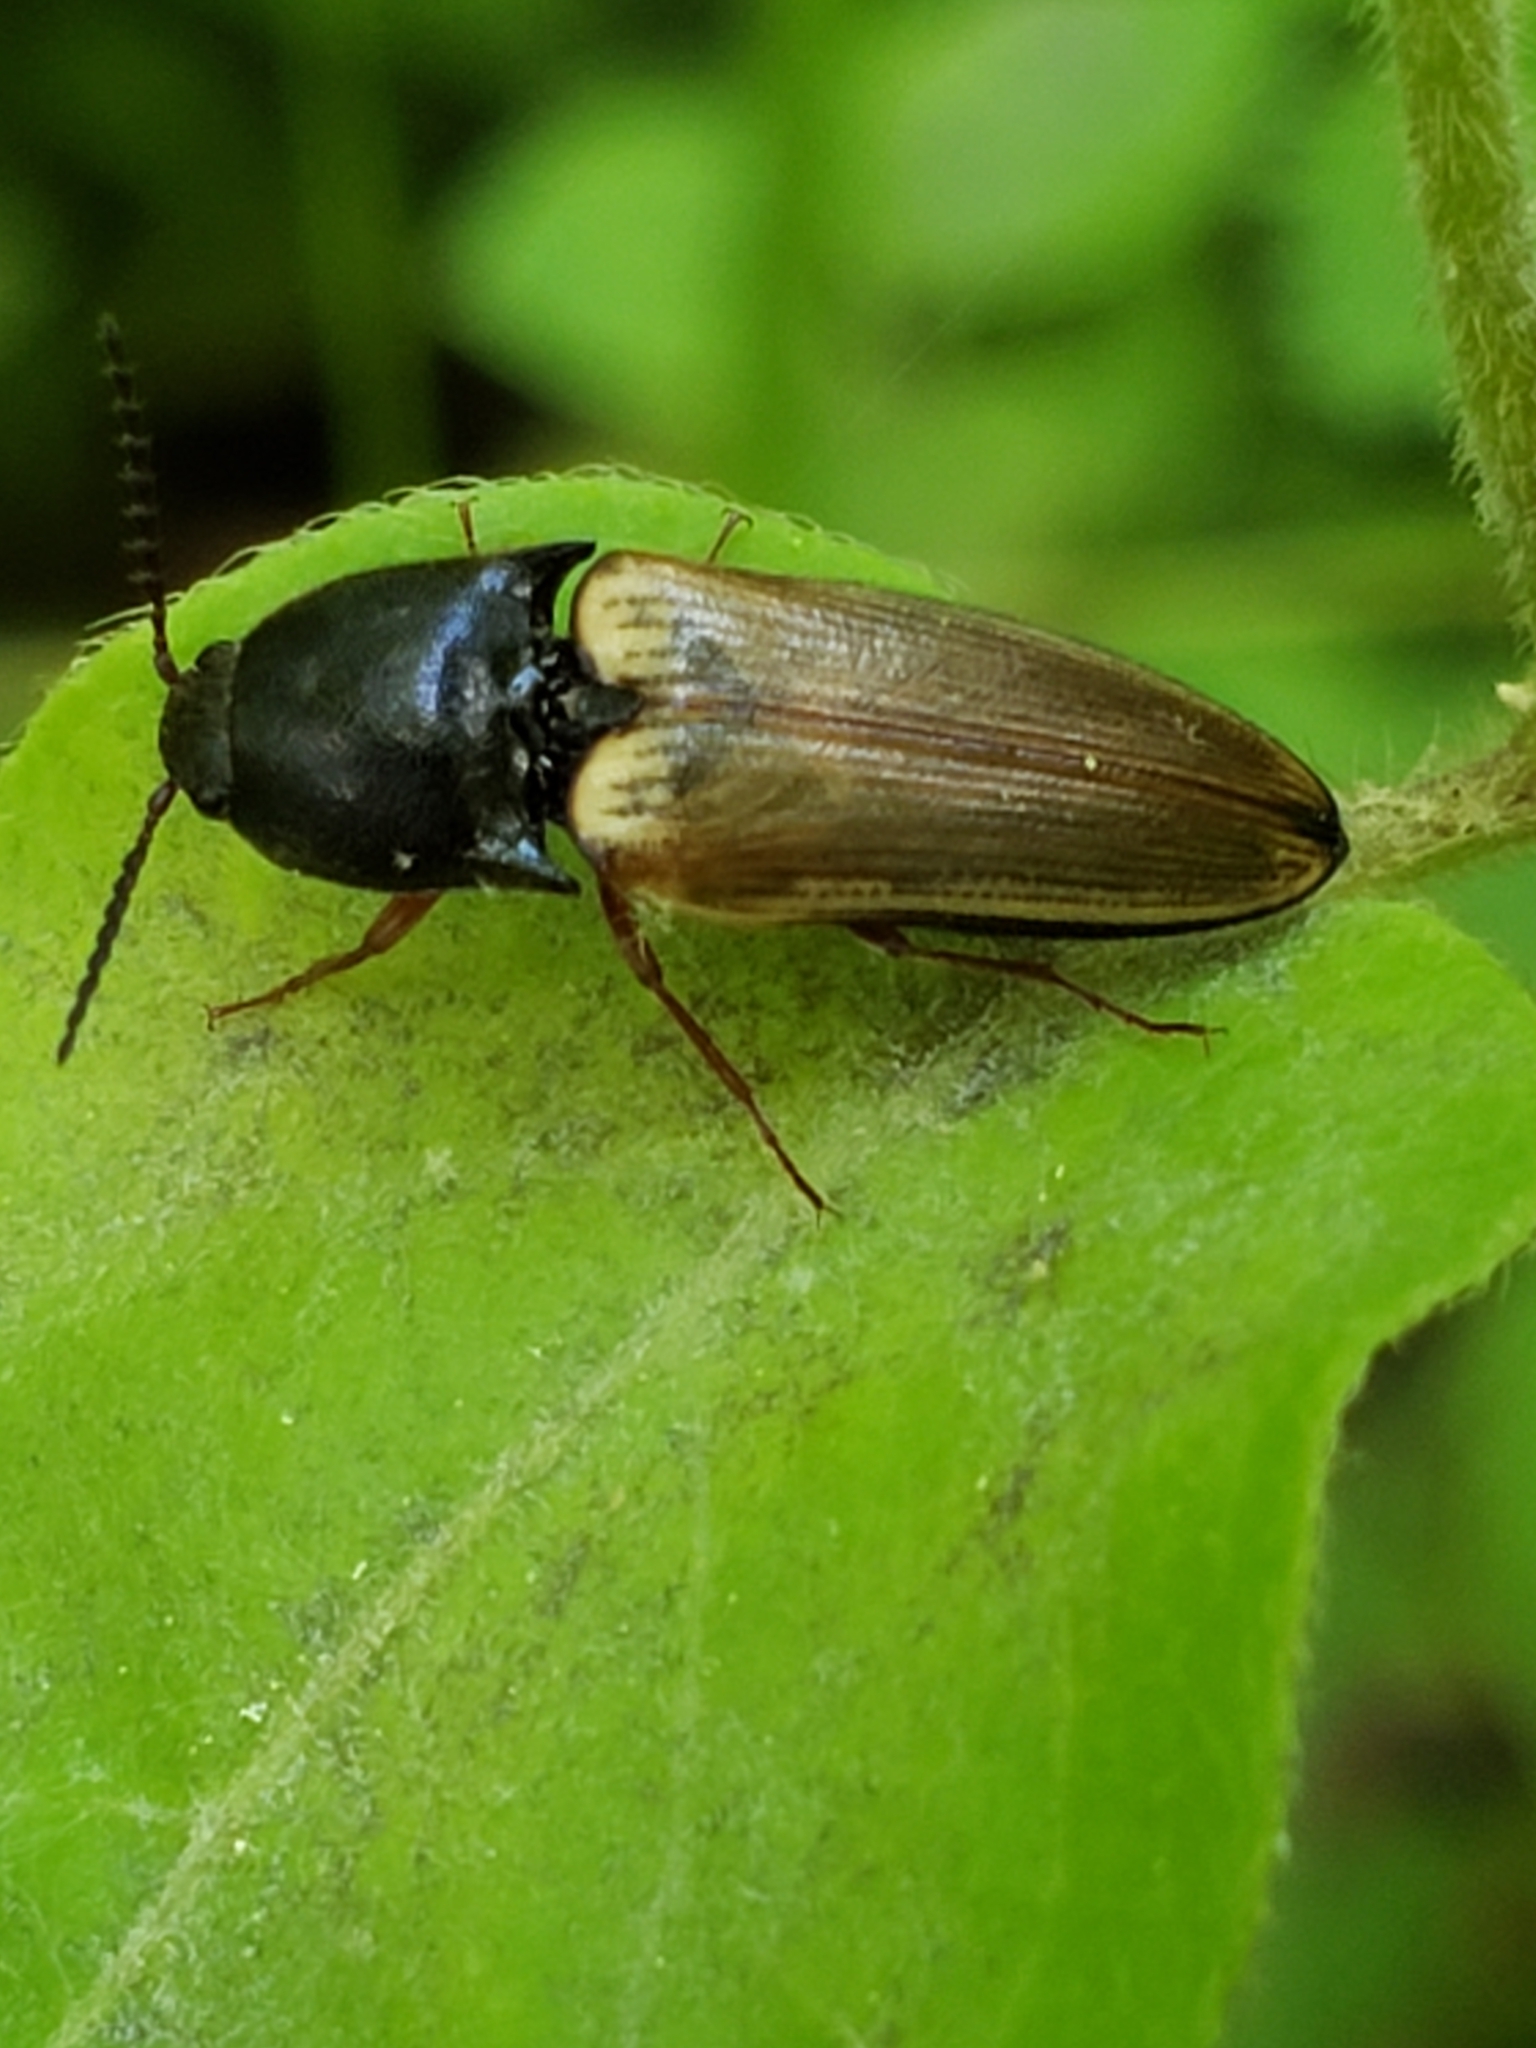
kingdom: Animalia
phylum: Arthropoda
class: Insecta
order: Coleoptera
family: Elateridae
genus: Ampedus
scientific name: Ampedus nigricollis
